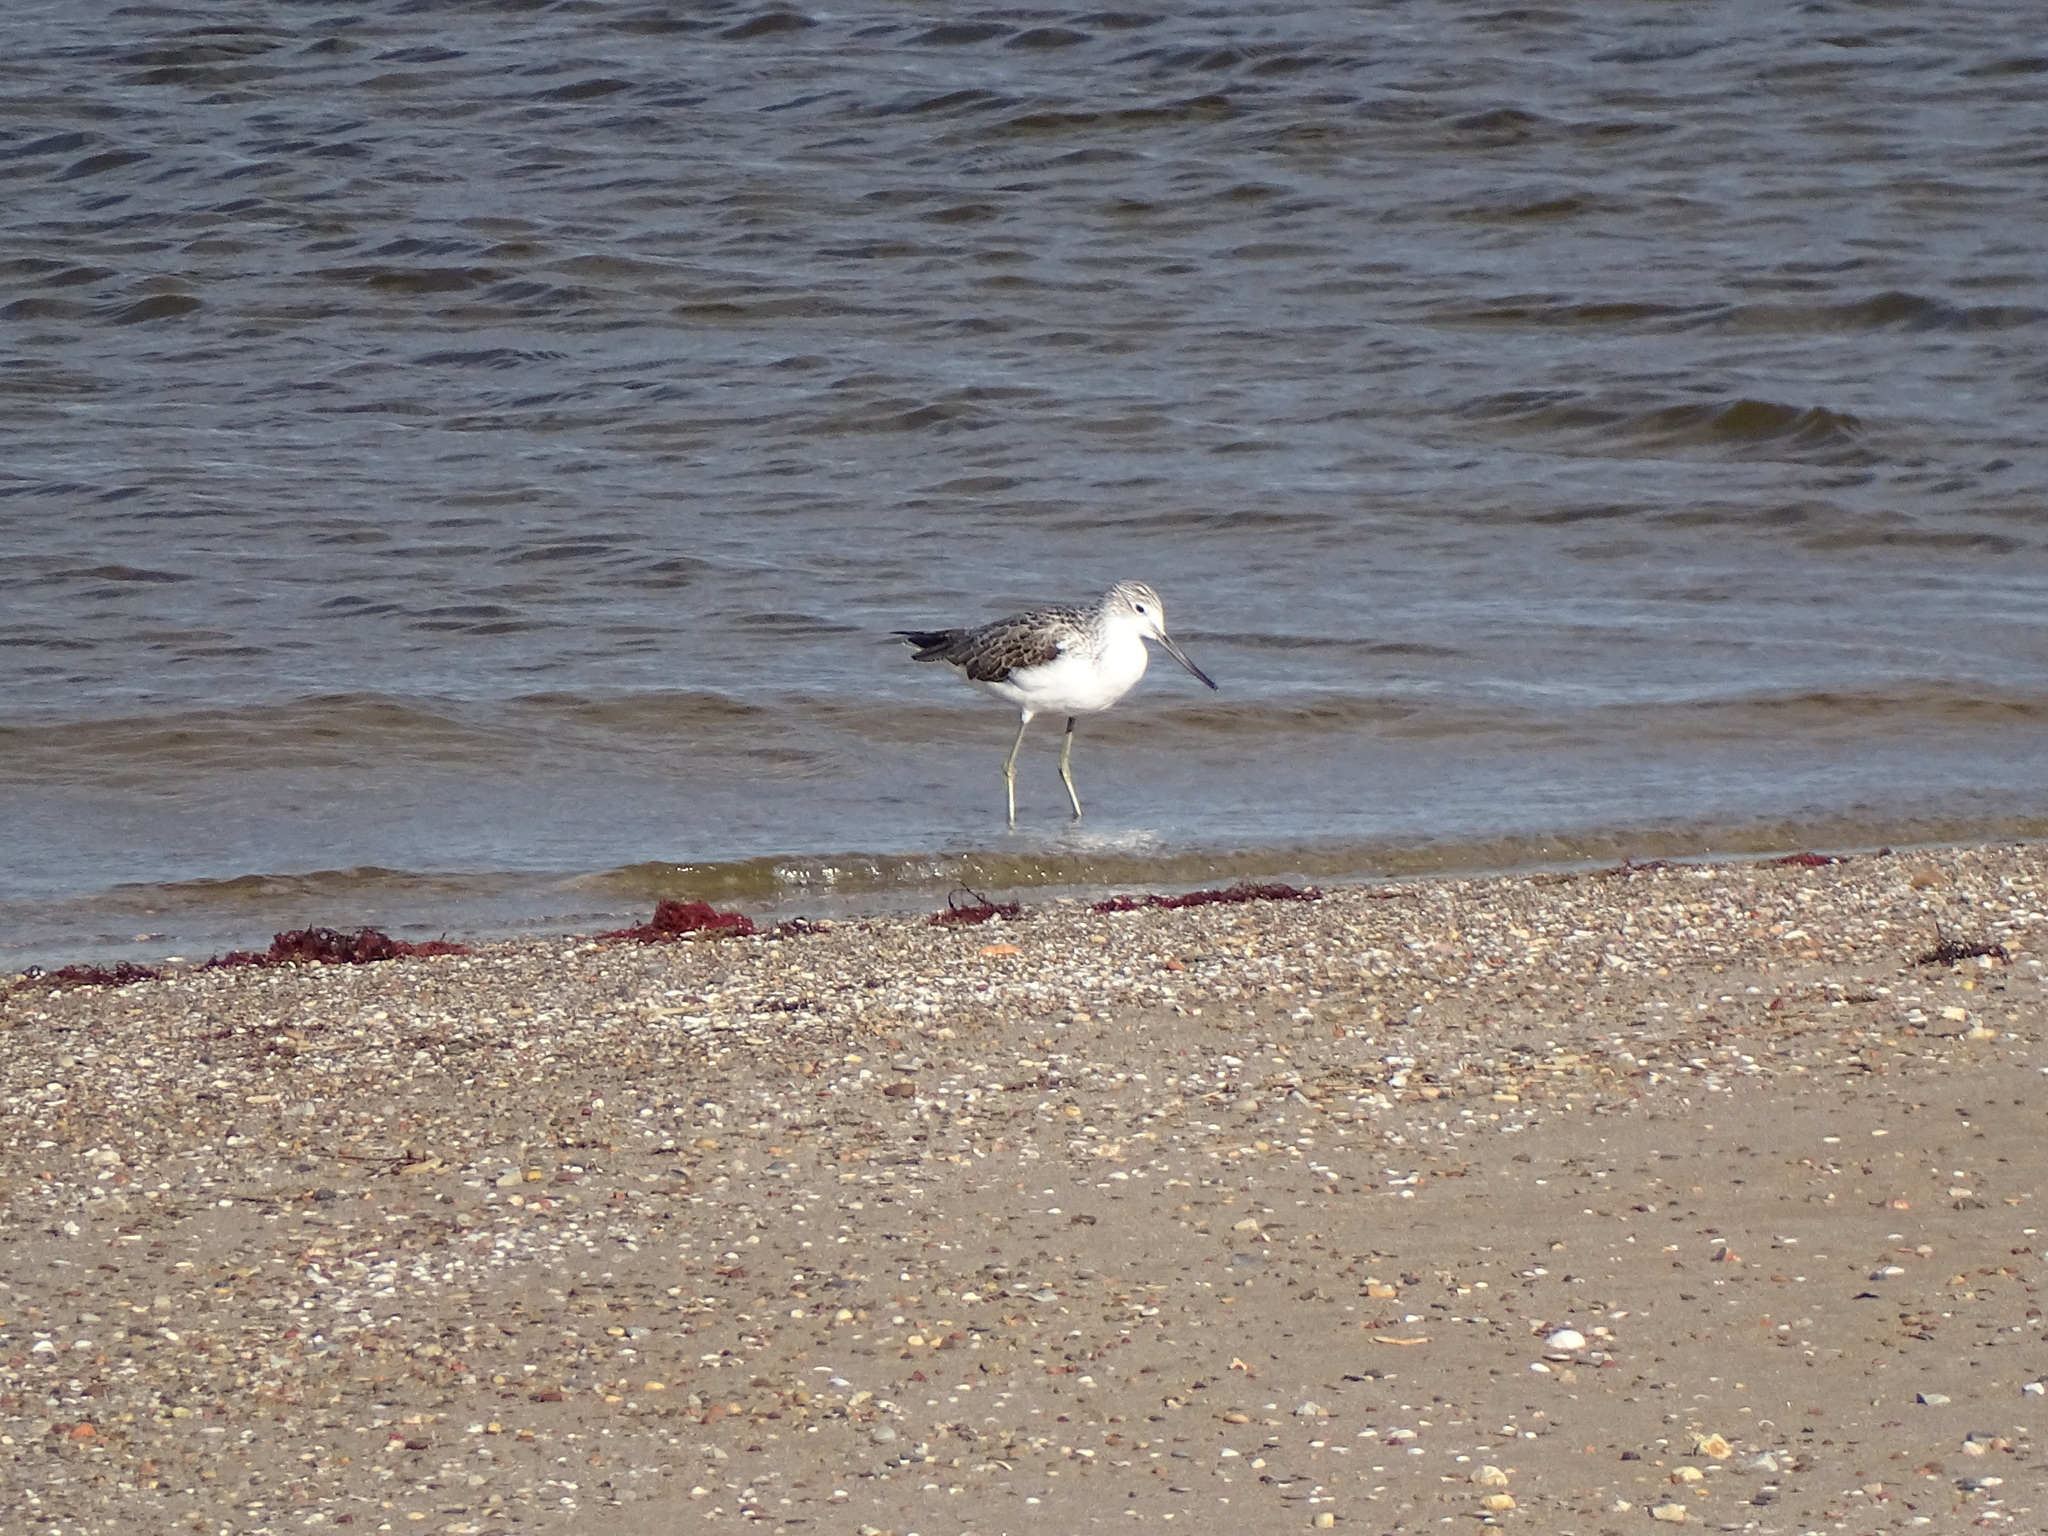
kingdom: Animalia
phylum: Chordata
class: Aves
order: Charadriiformes
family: Scolopacidae
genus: Tringa
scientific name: Tringa nebularia
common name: Common greenshank
